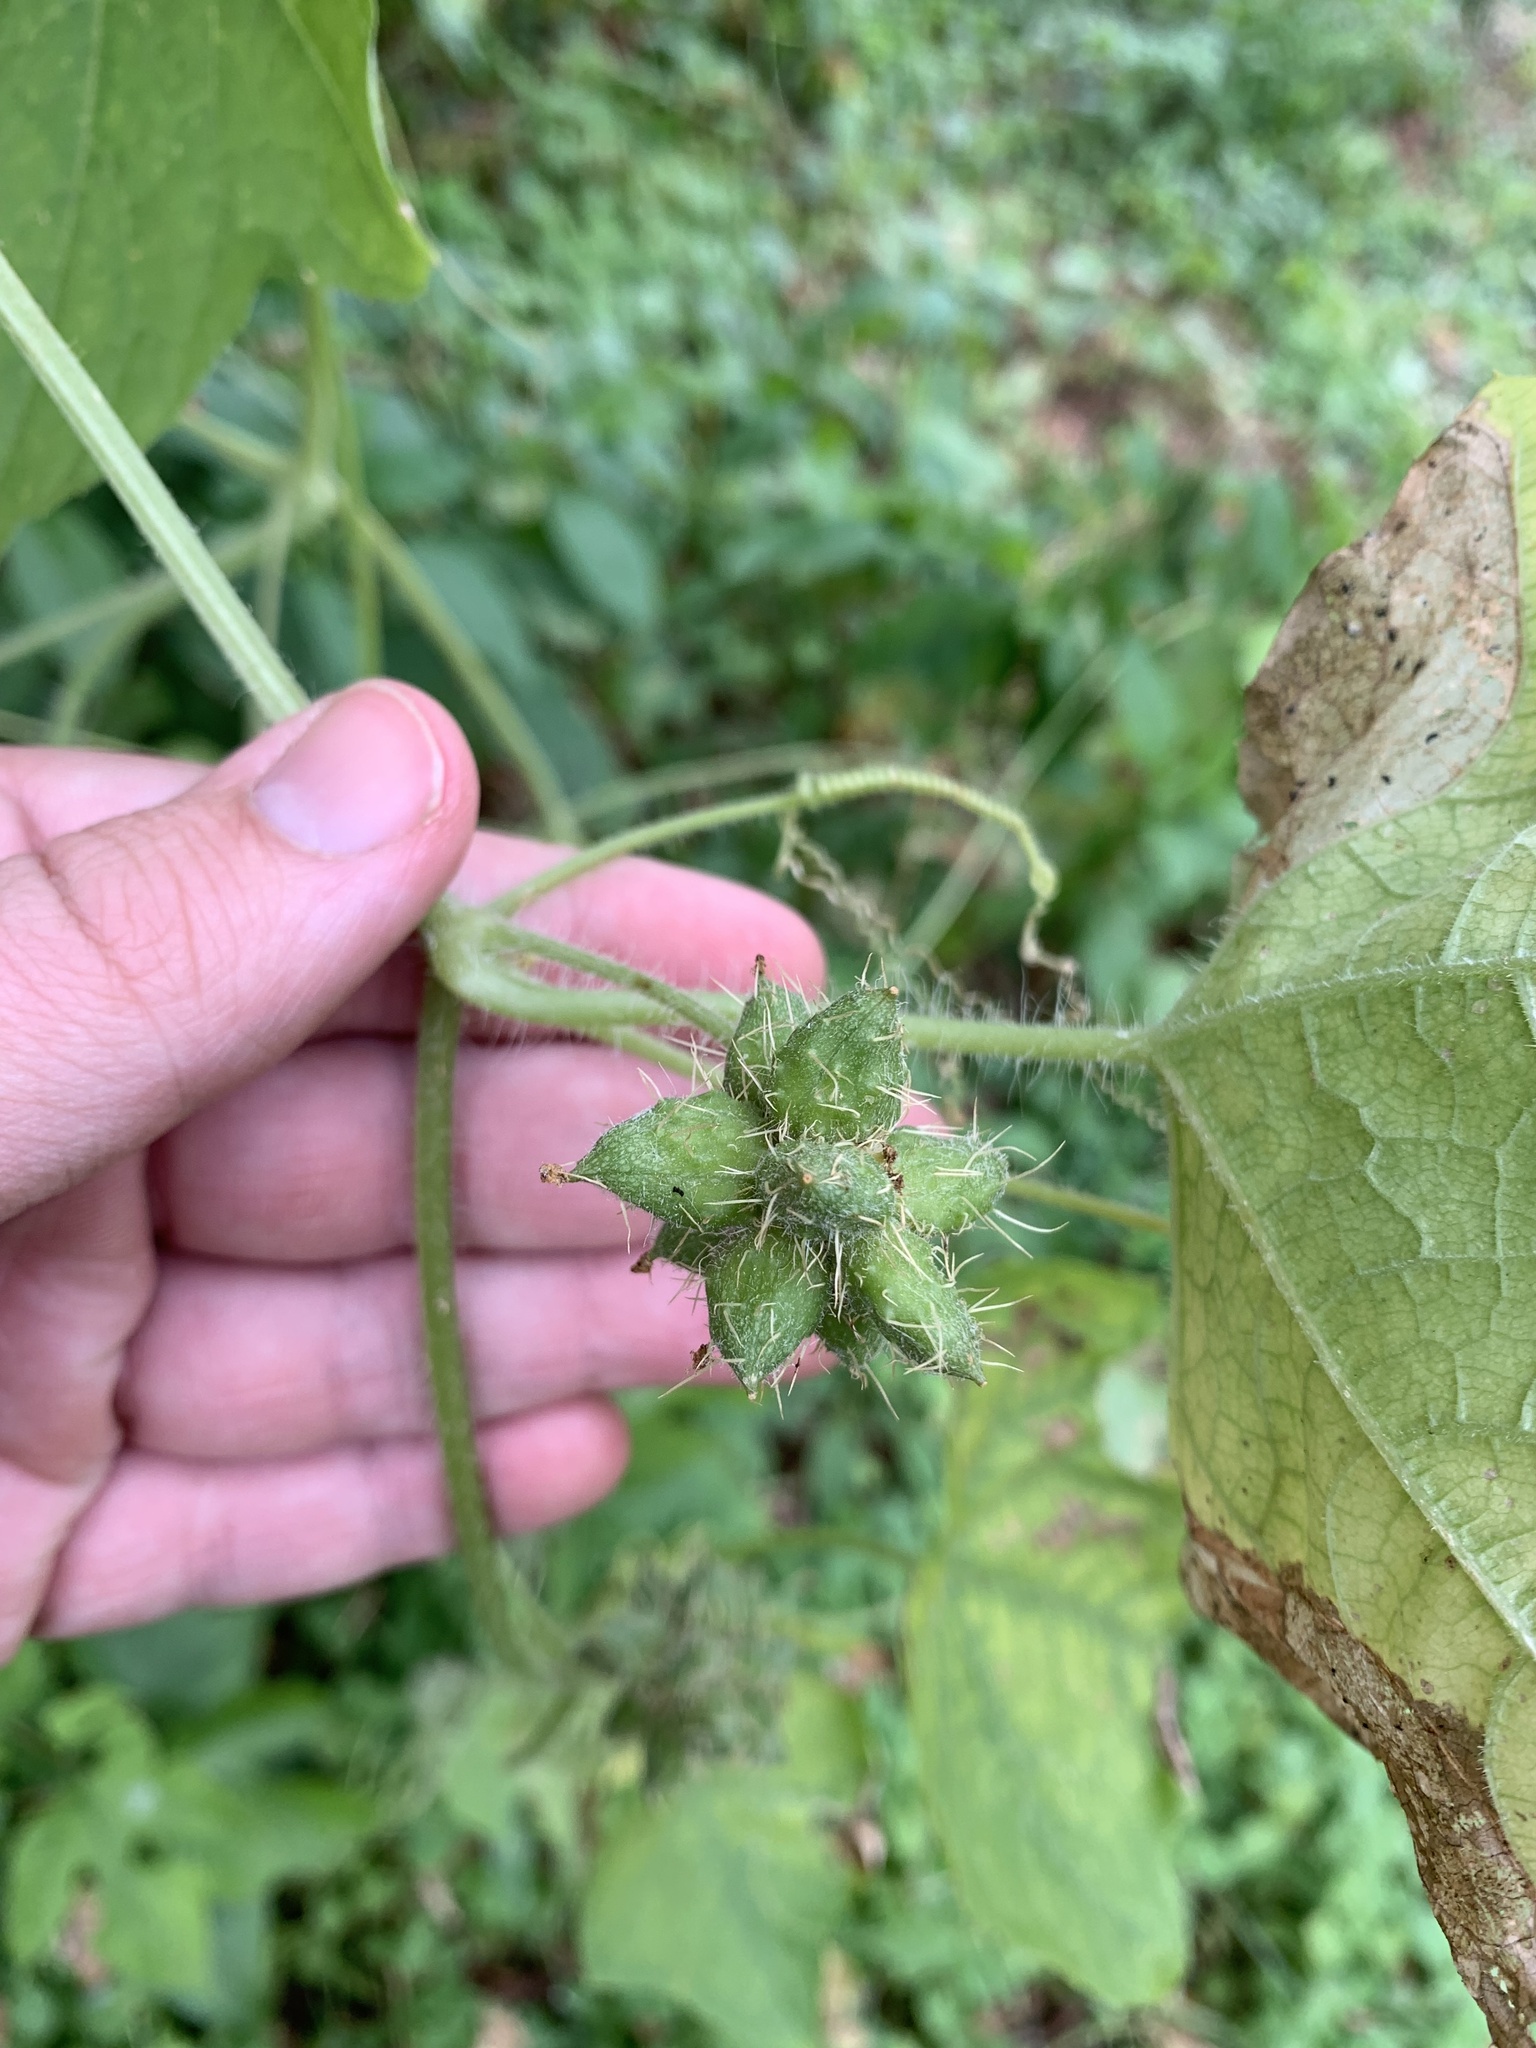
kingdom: Plantae
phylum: Tracheophyta
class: Magnoliopsida
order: Cucurbitales
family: Cucurbitaceae
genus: Sicyos
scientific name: Sicyos angulatus
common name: Angled burr cucumber
